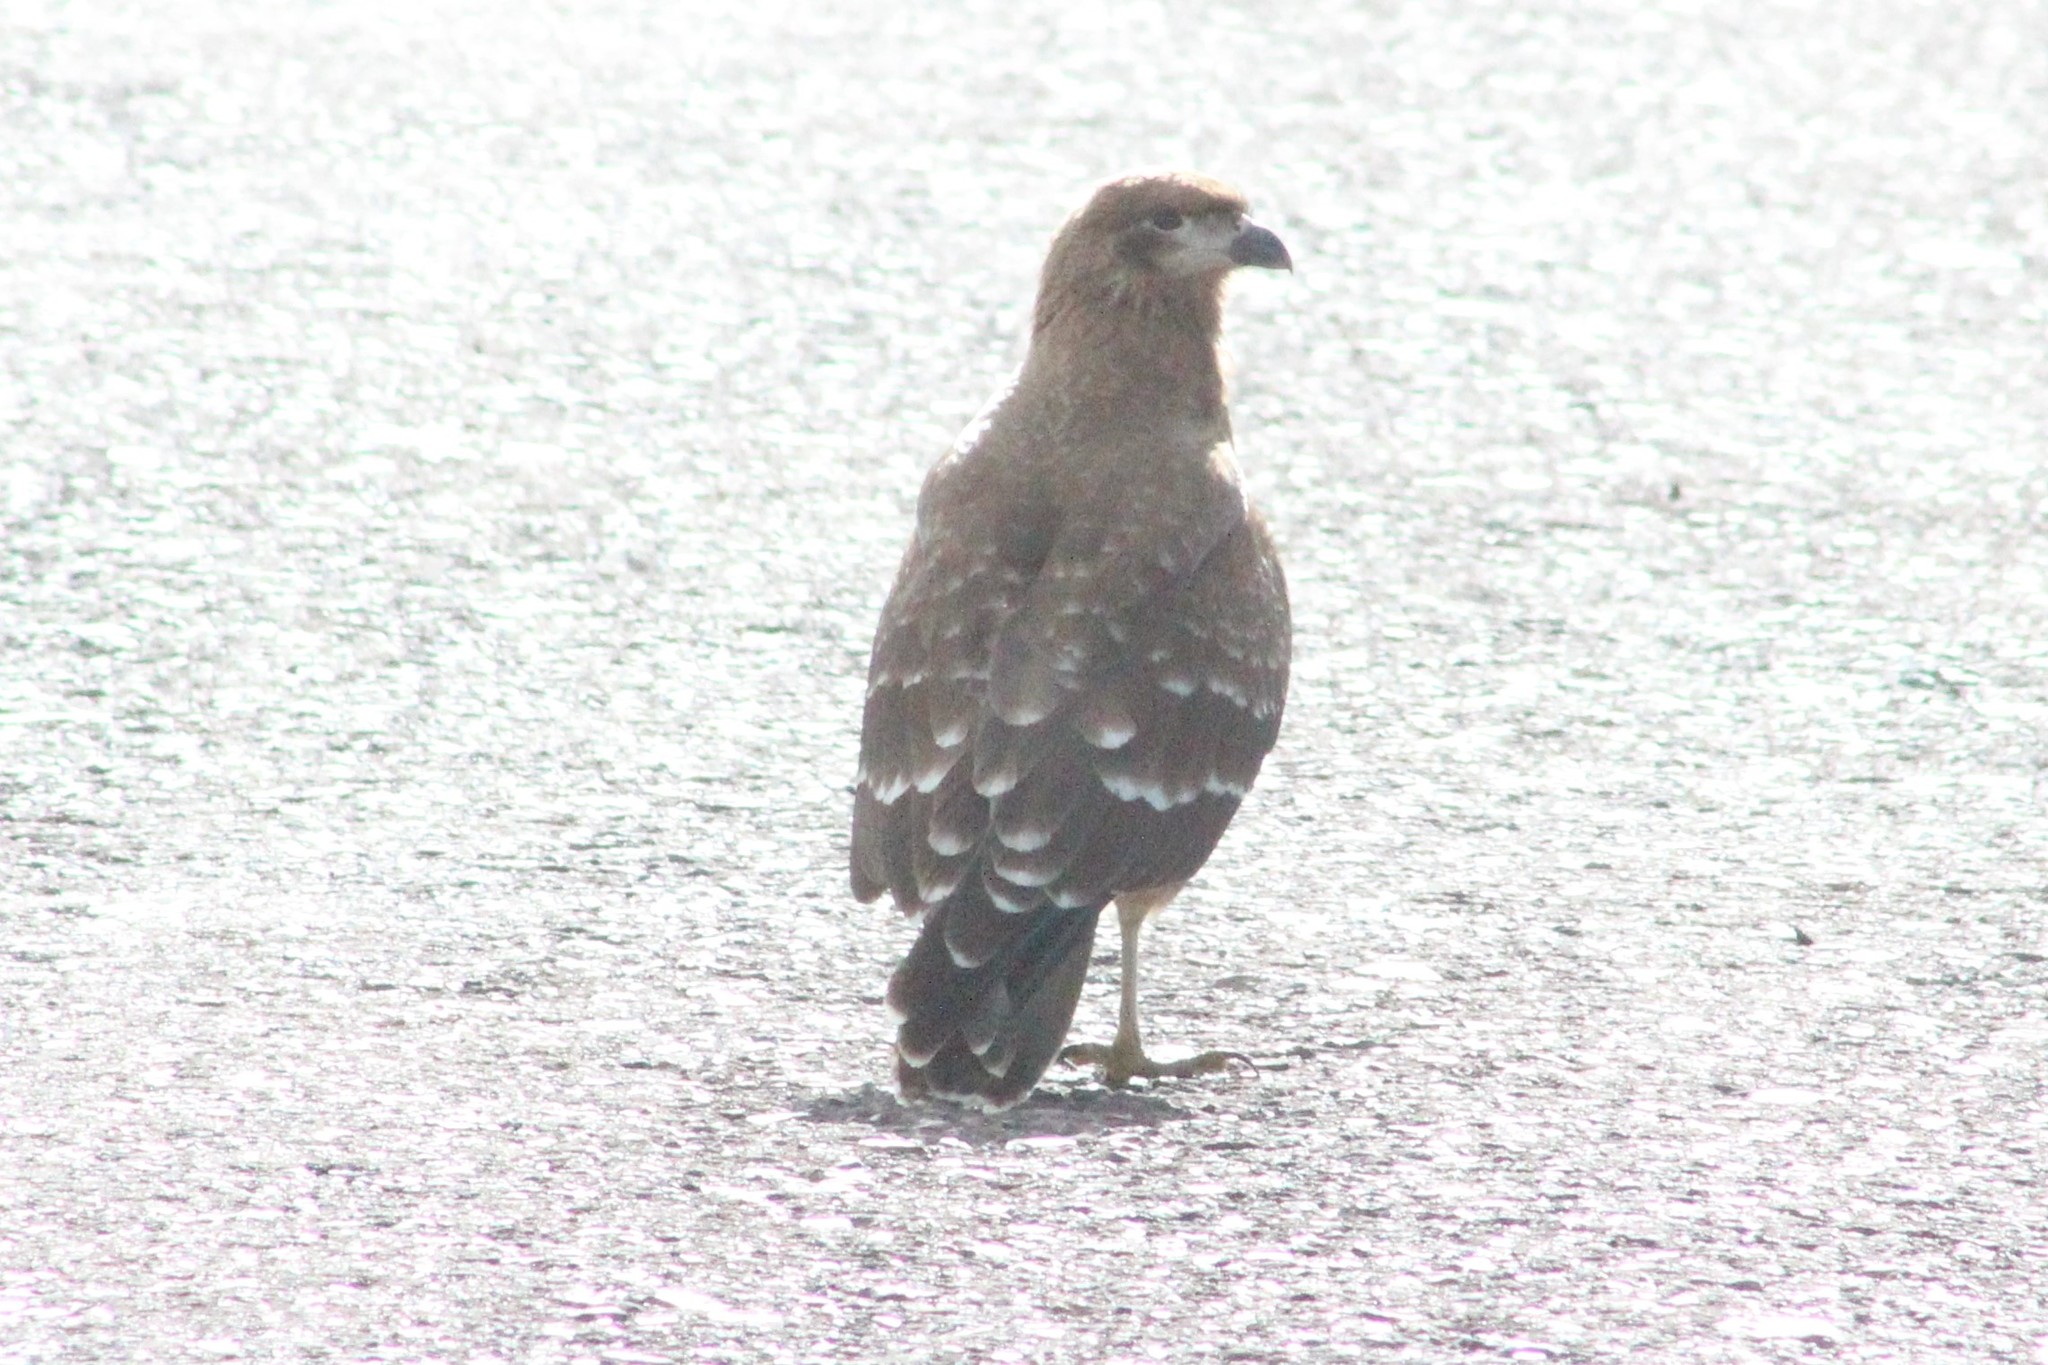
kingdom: Animalia
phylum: Chordata
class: Aves
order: Falconiformes
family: Falconidae
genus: Daptrius
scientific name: Daptrius
